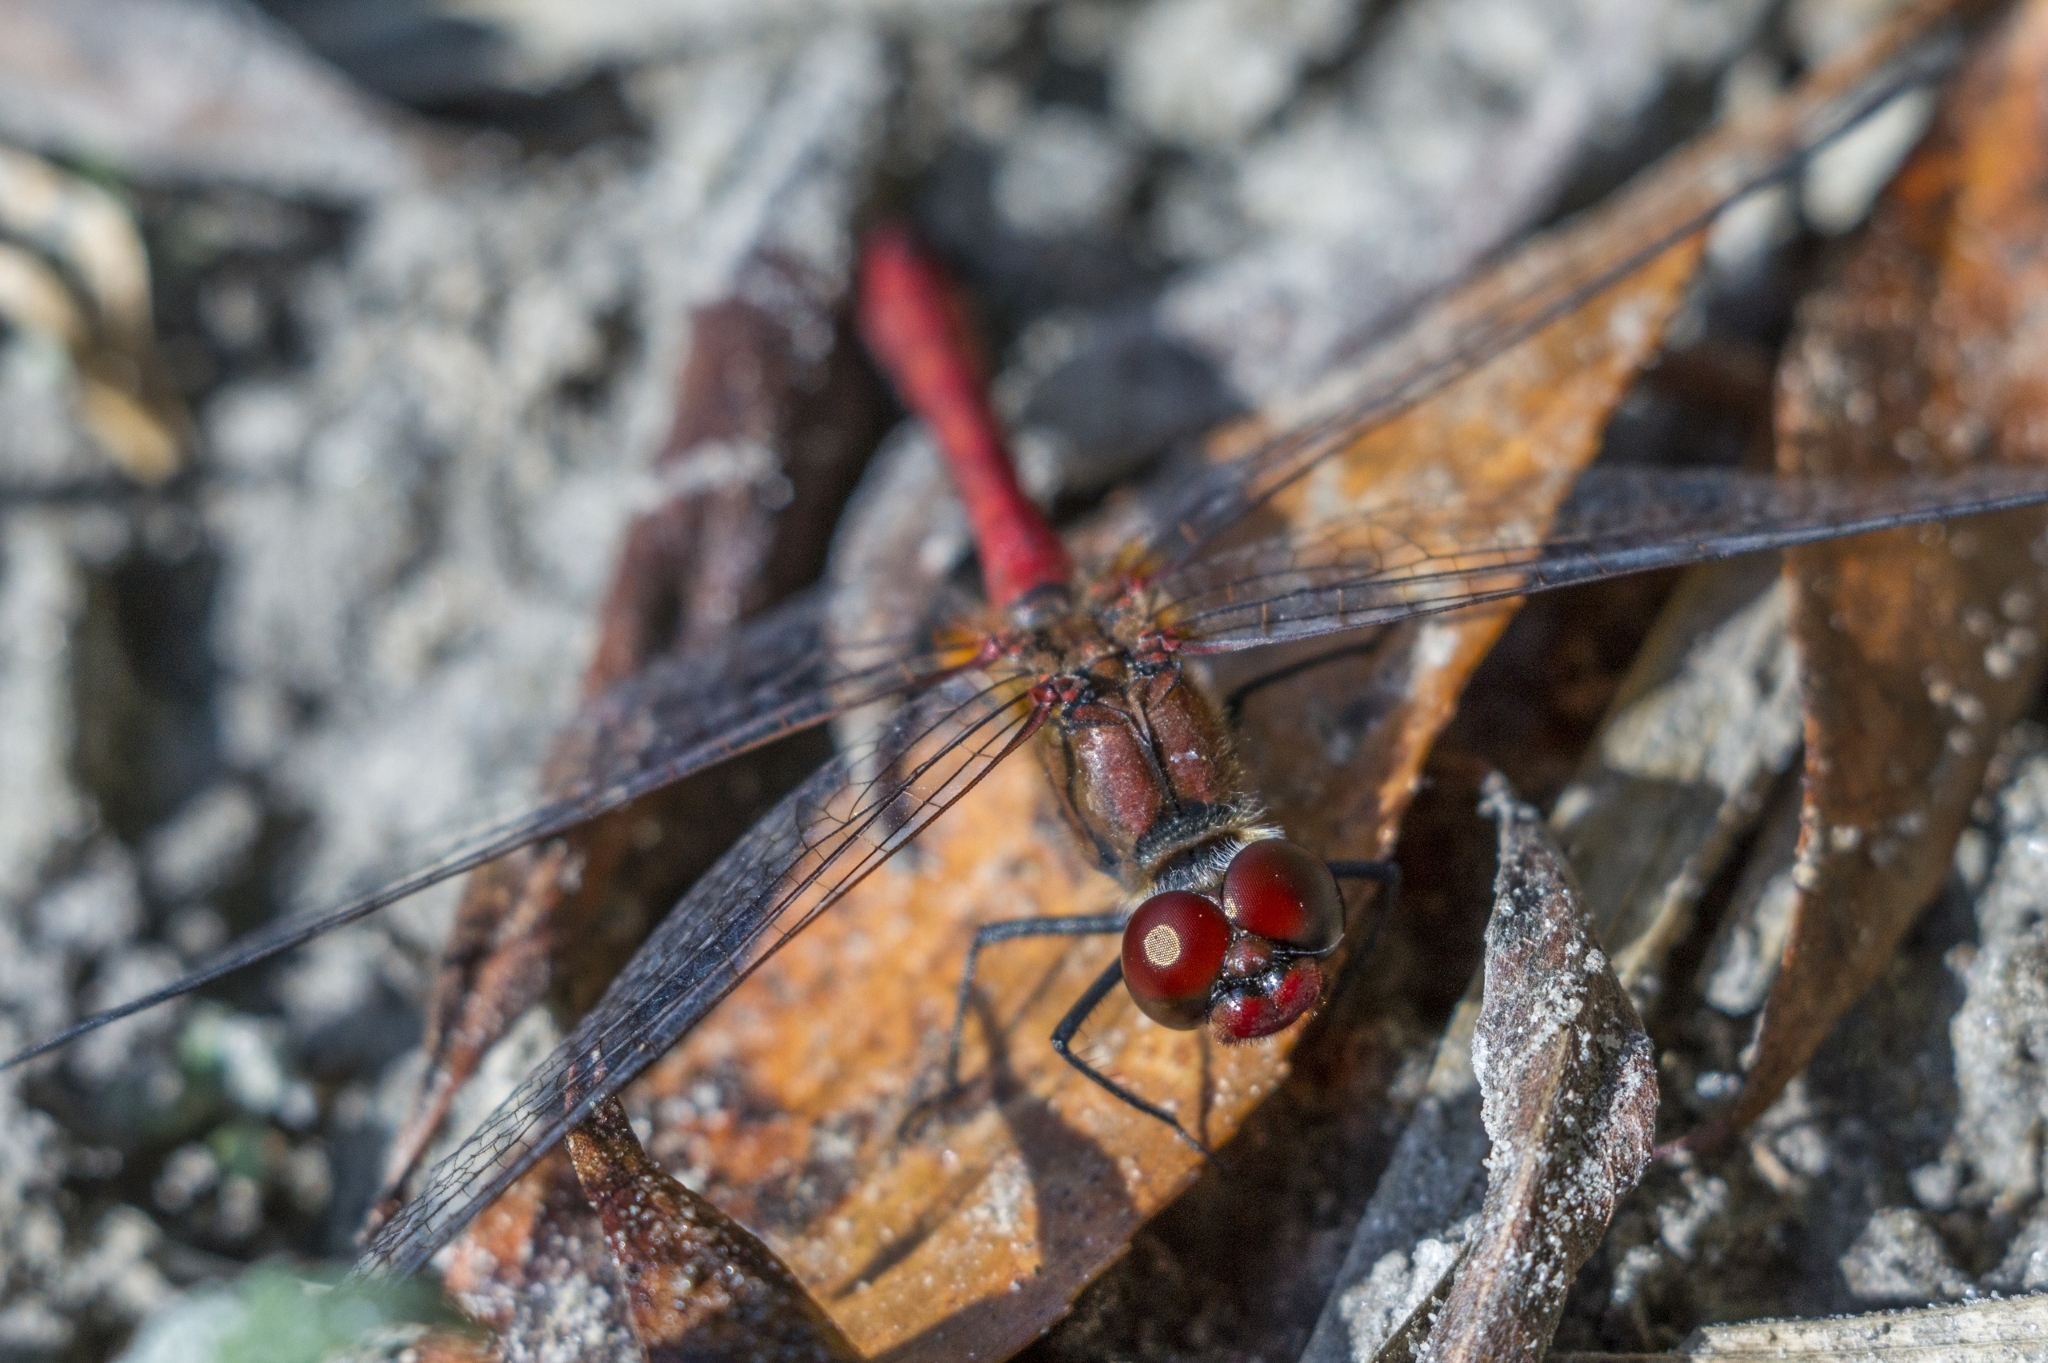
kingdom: Animalia
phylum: Arthropoda
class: Insecta
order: Odonata
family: Libellulidae
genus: Sympetrum
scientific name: Sympetrum sanguineum
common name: Ruddy darter
